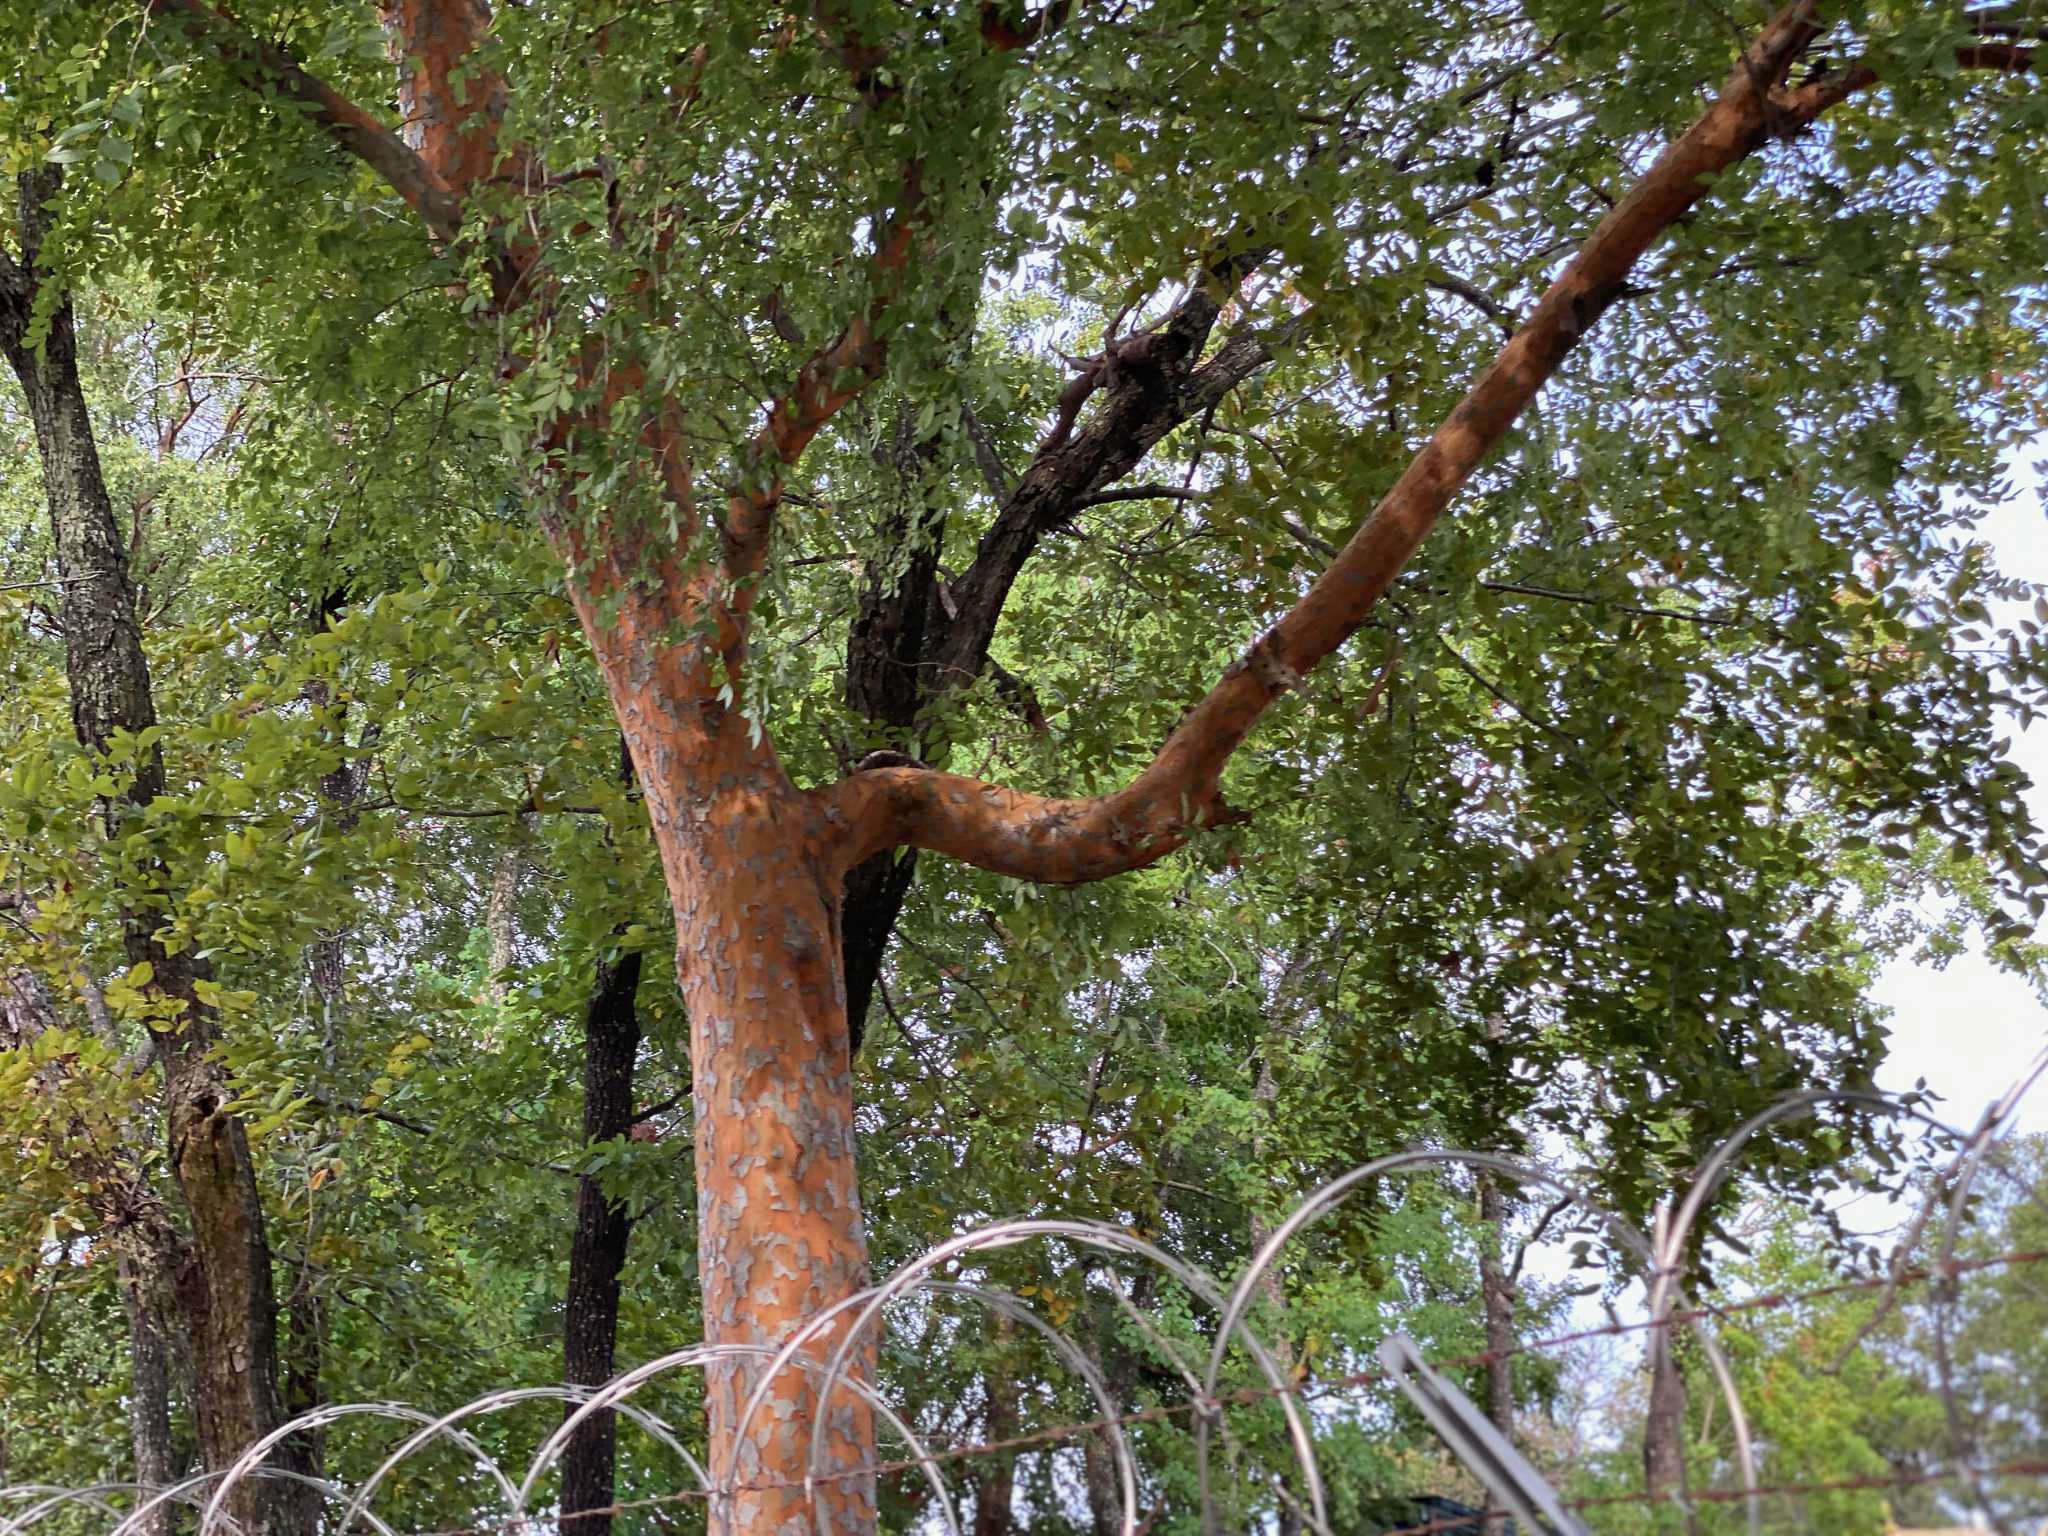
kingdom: Plantae
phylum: Tracheophyta
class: Magnoliopsida
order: Rosales
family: Ulmaceae
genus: Ulmus
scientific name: Ulmus parvifolia
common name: Chinese elm
